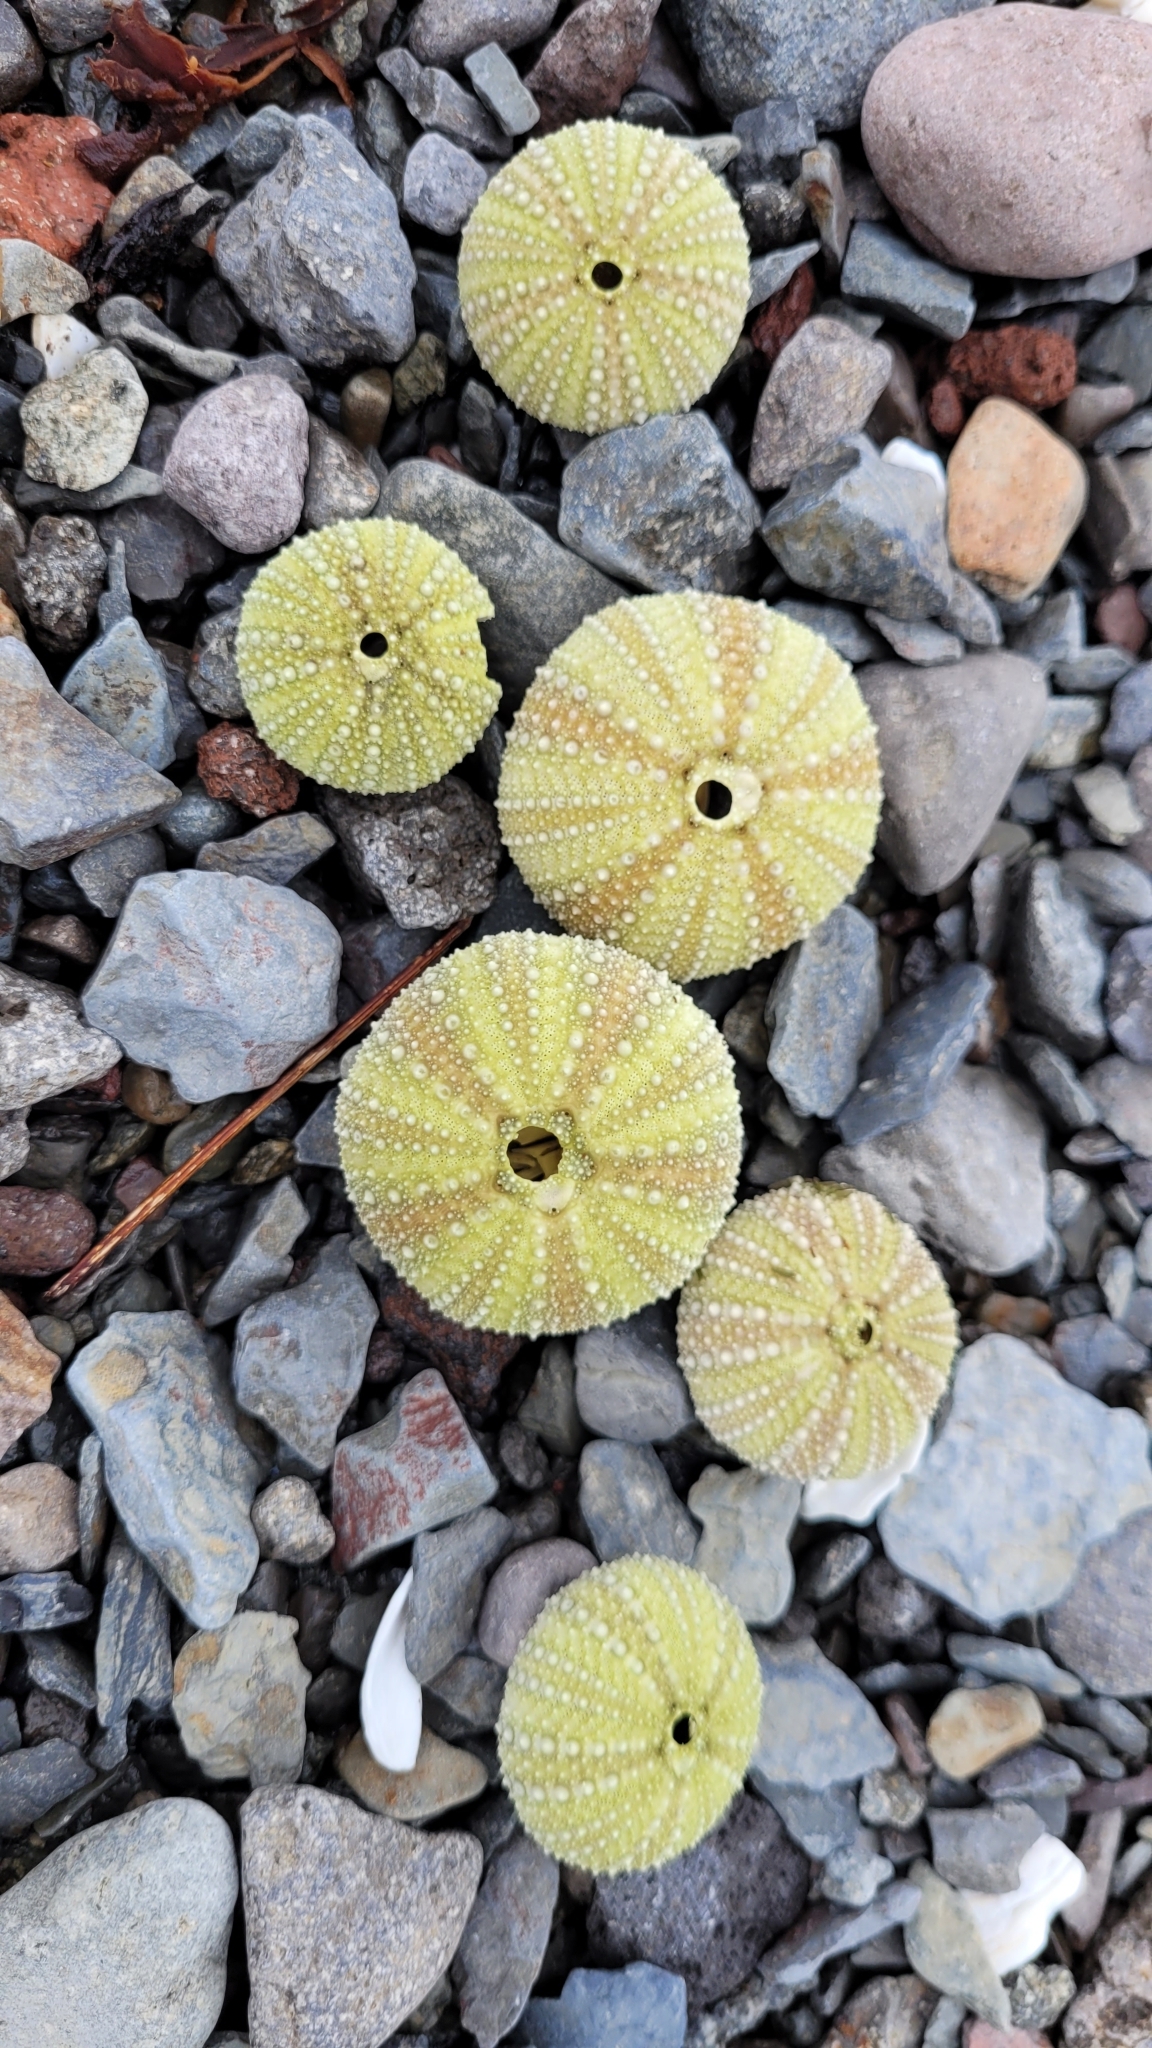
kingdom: Animalia
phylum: Echinodermata
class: Echinoidea
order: Camarodonta
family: Strongylocentrotidae
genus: Strongylocentrotus
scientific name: Strongylocentrotus droebachiensis
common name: Northern sea urchin
